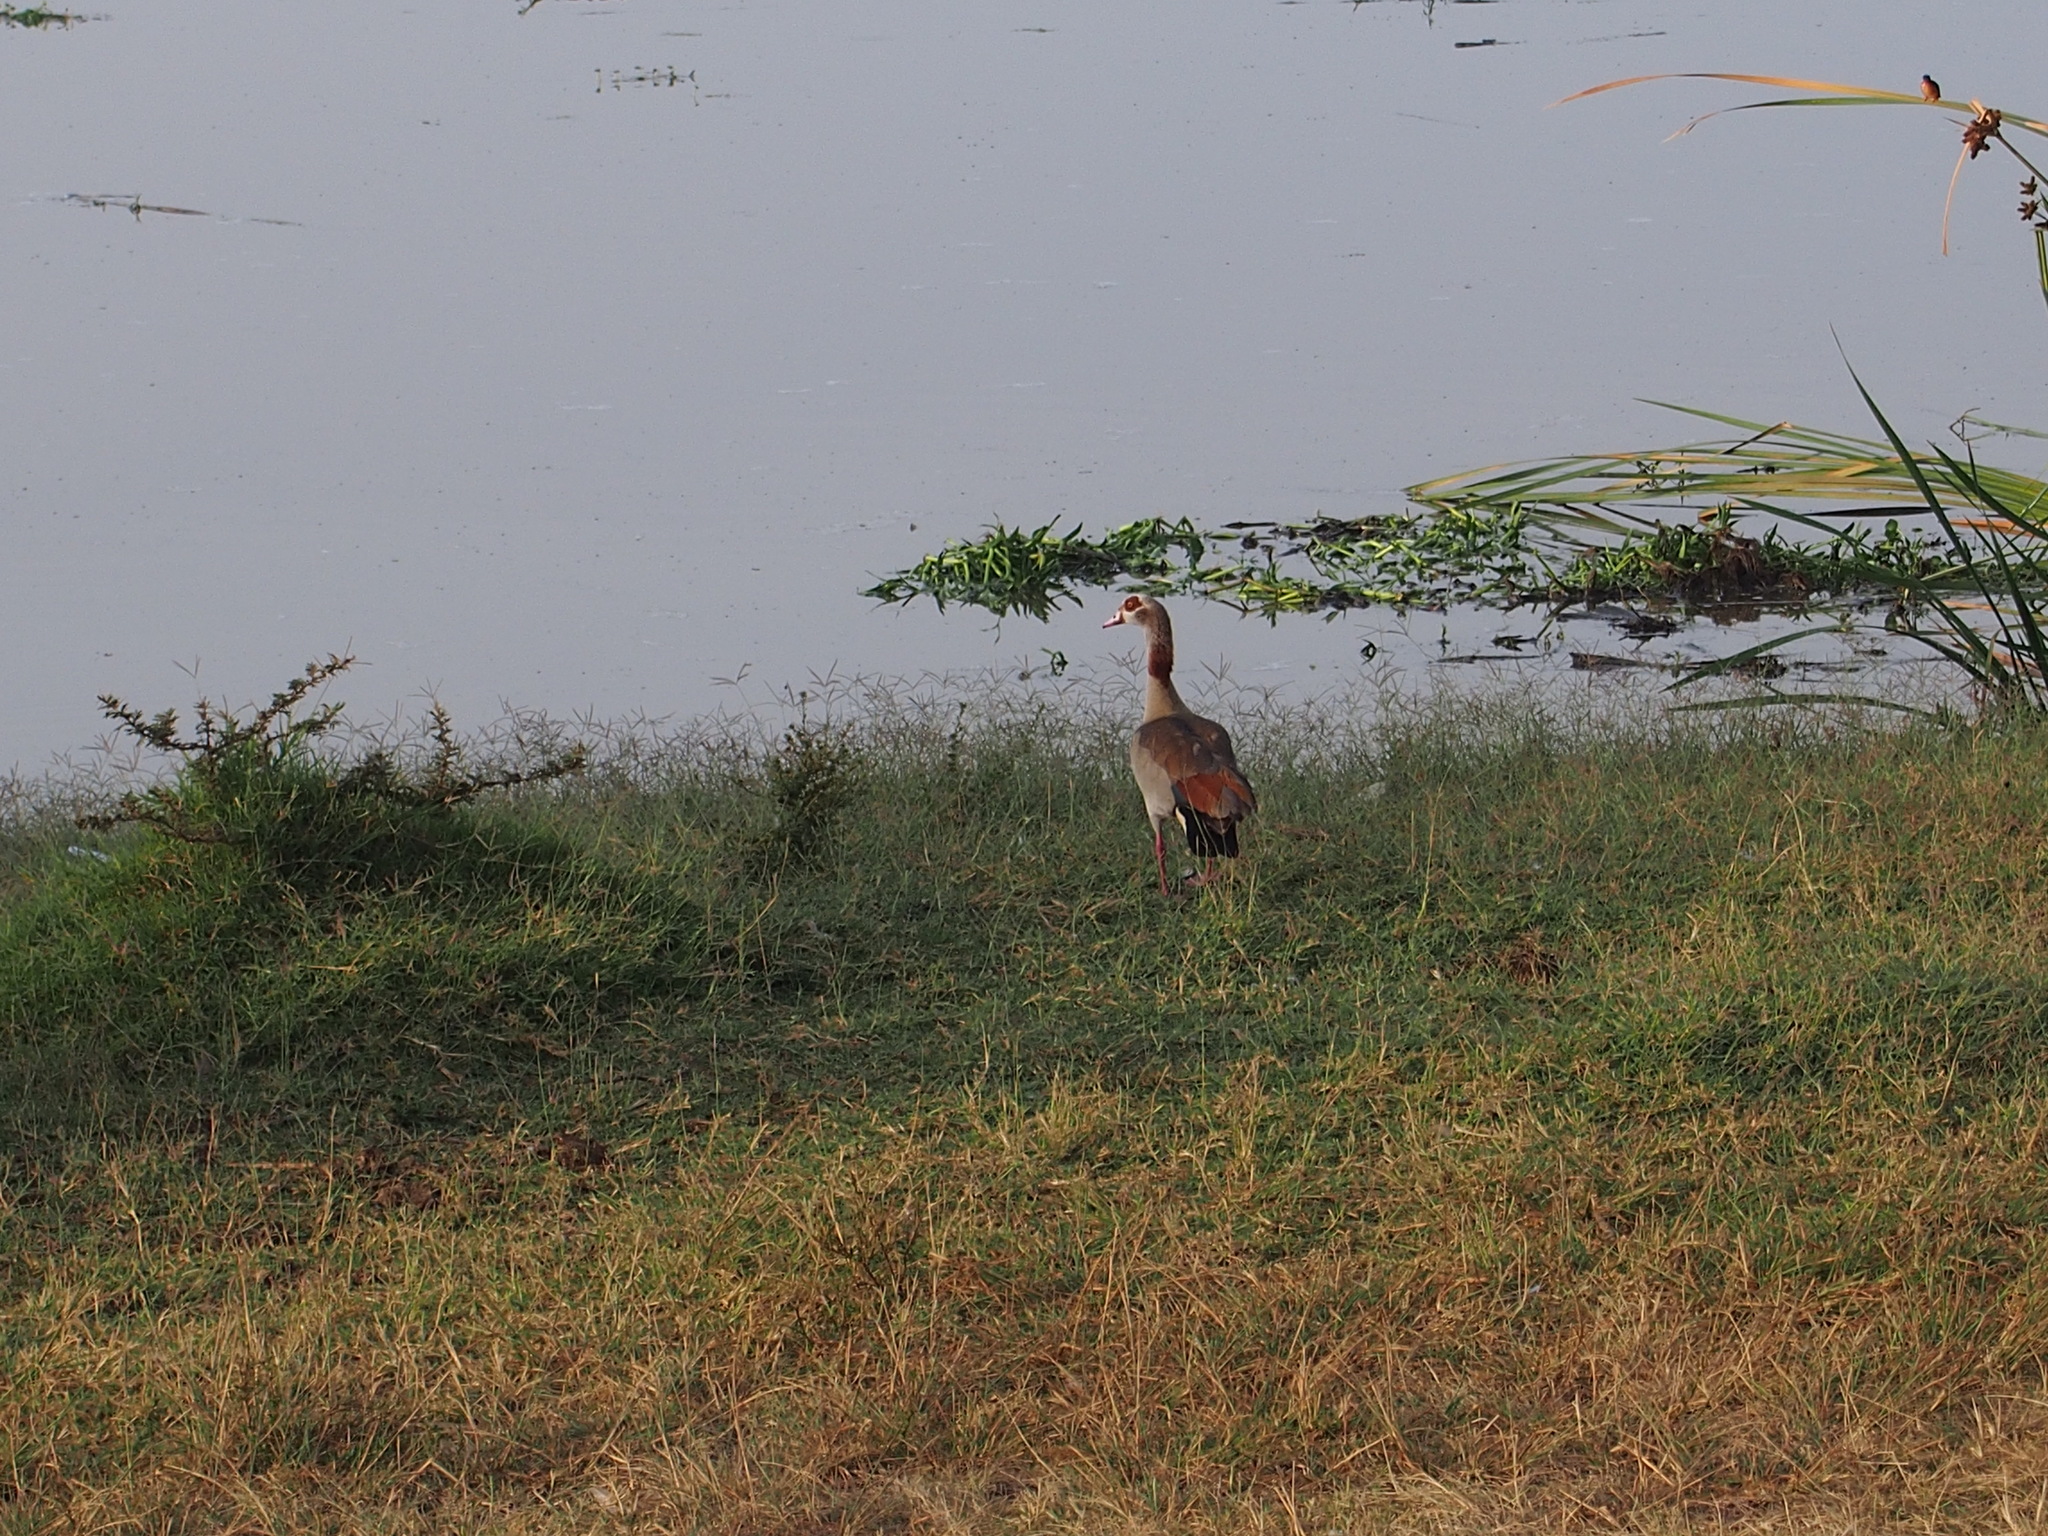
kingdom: Animalia
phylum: Chordata
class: Aves
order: Anseriformes
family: Anatidae
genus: Alopochen
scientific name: Alopochen aegyptiaca
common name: Egyptian goose
